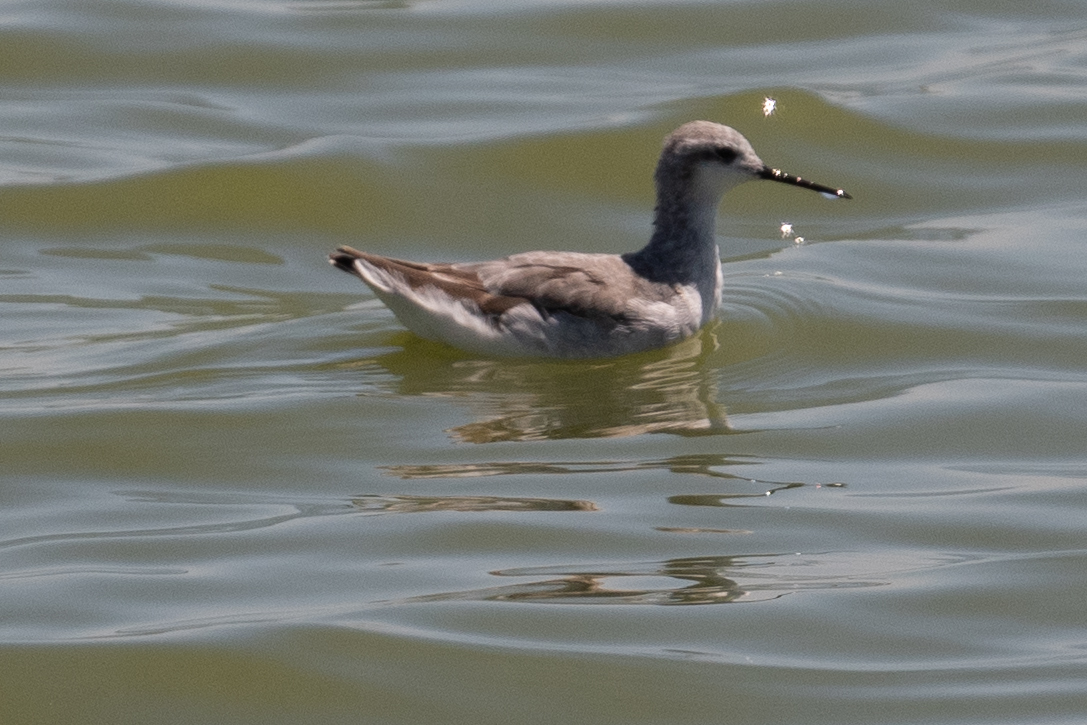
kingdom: Animalia
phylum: Chordata
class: Aves
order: Charadriiformes
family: Scolopacidae
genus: Phalaropus
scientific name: Phalaropus tricolor
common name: Wilson's phalarope
